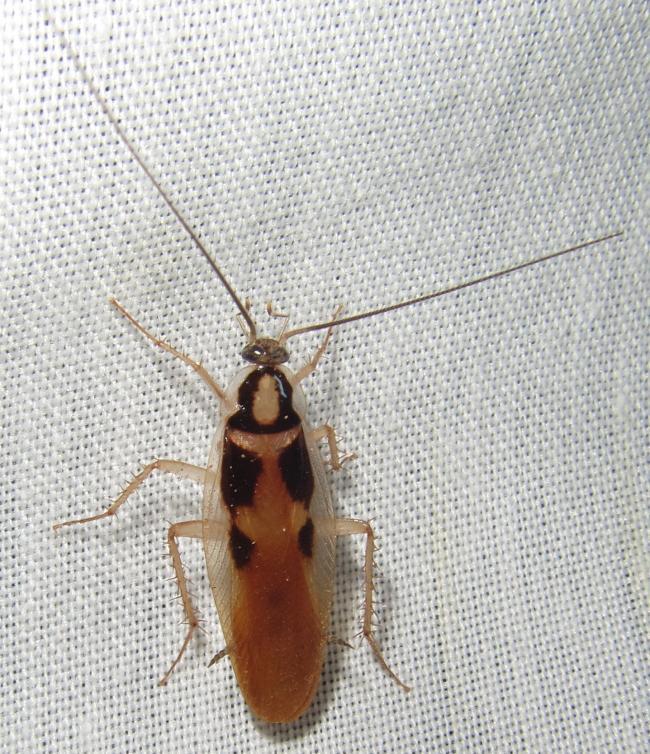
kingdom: Animalia
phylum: Arthropoda
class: Insecta
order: Blattodea
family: Ectobiidae
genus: Supella
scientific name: Supella dimidiata
